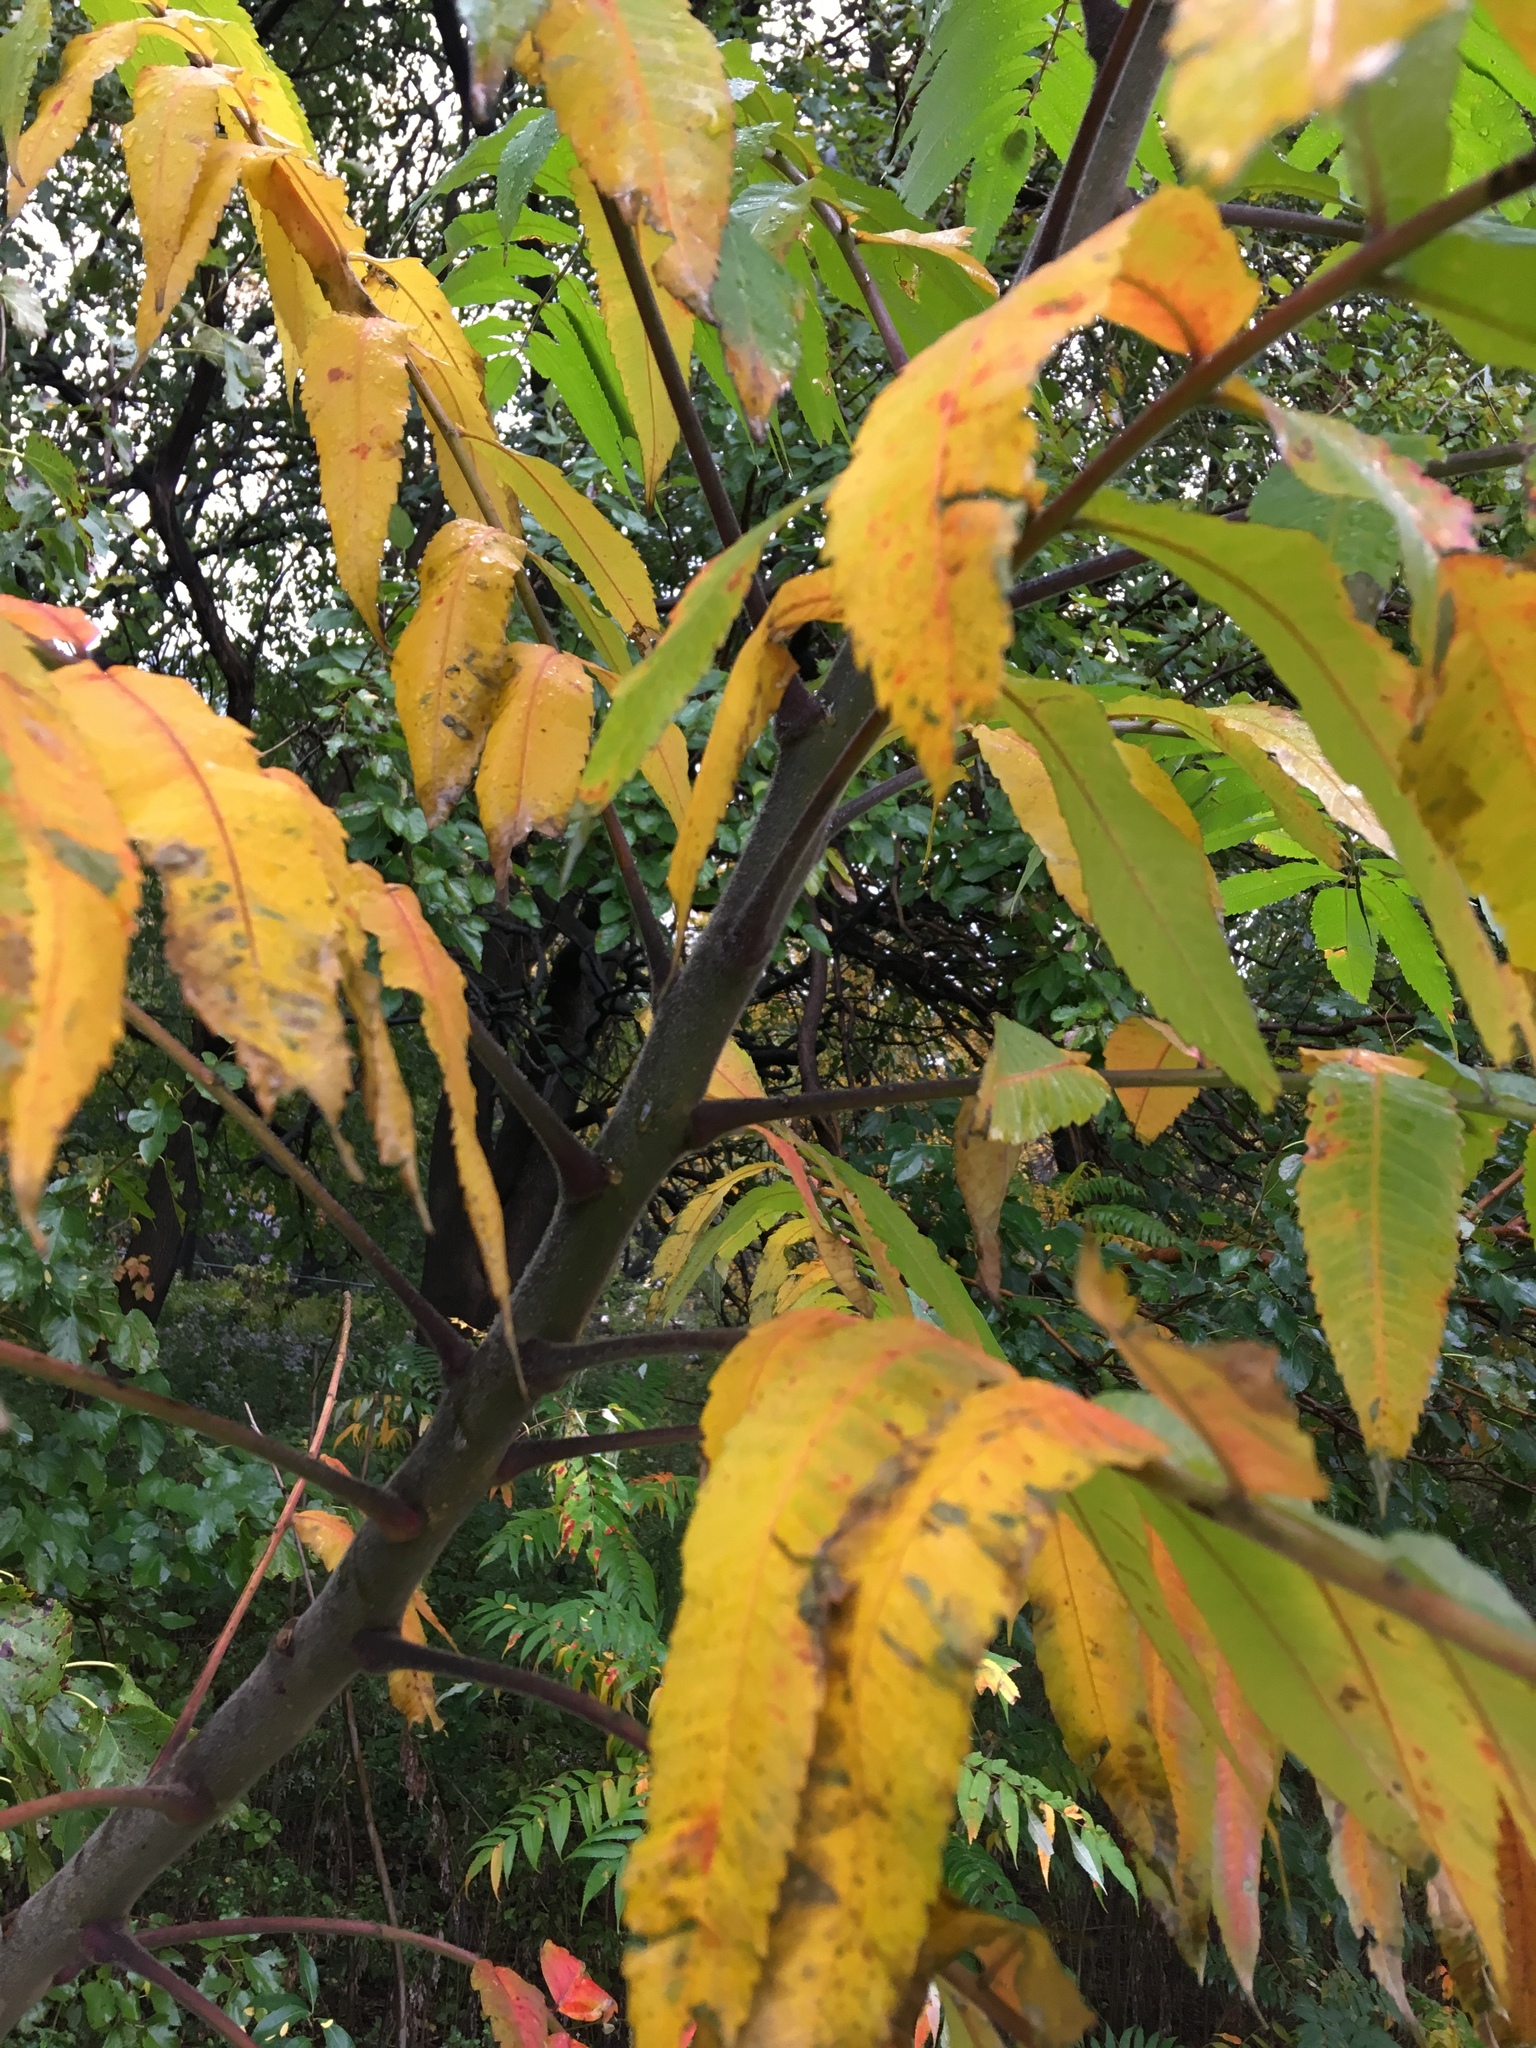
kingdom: Plantae
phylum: Tracheophyta
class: Magnoliopsida
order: Sapindales
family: Anacardiaceae
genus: Rhus
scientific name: Rhus typhina
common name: Staghorn sumac
